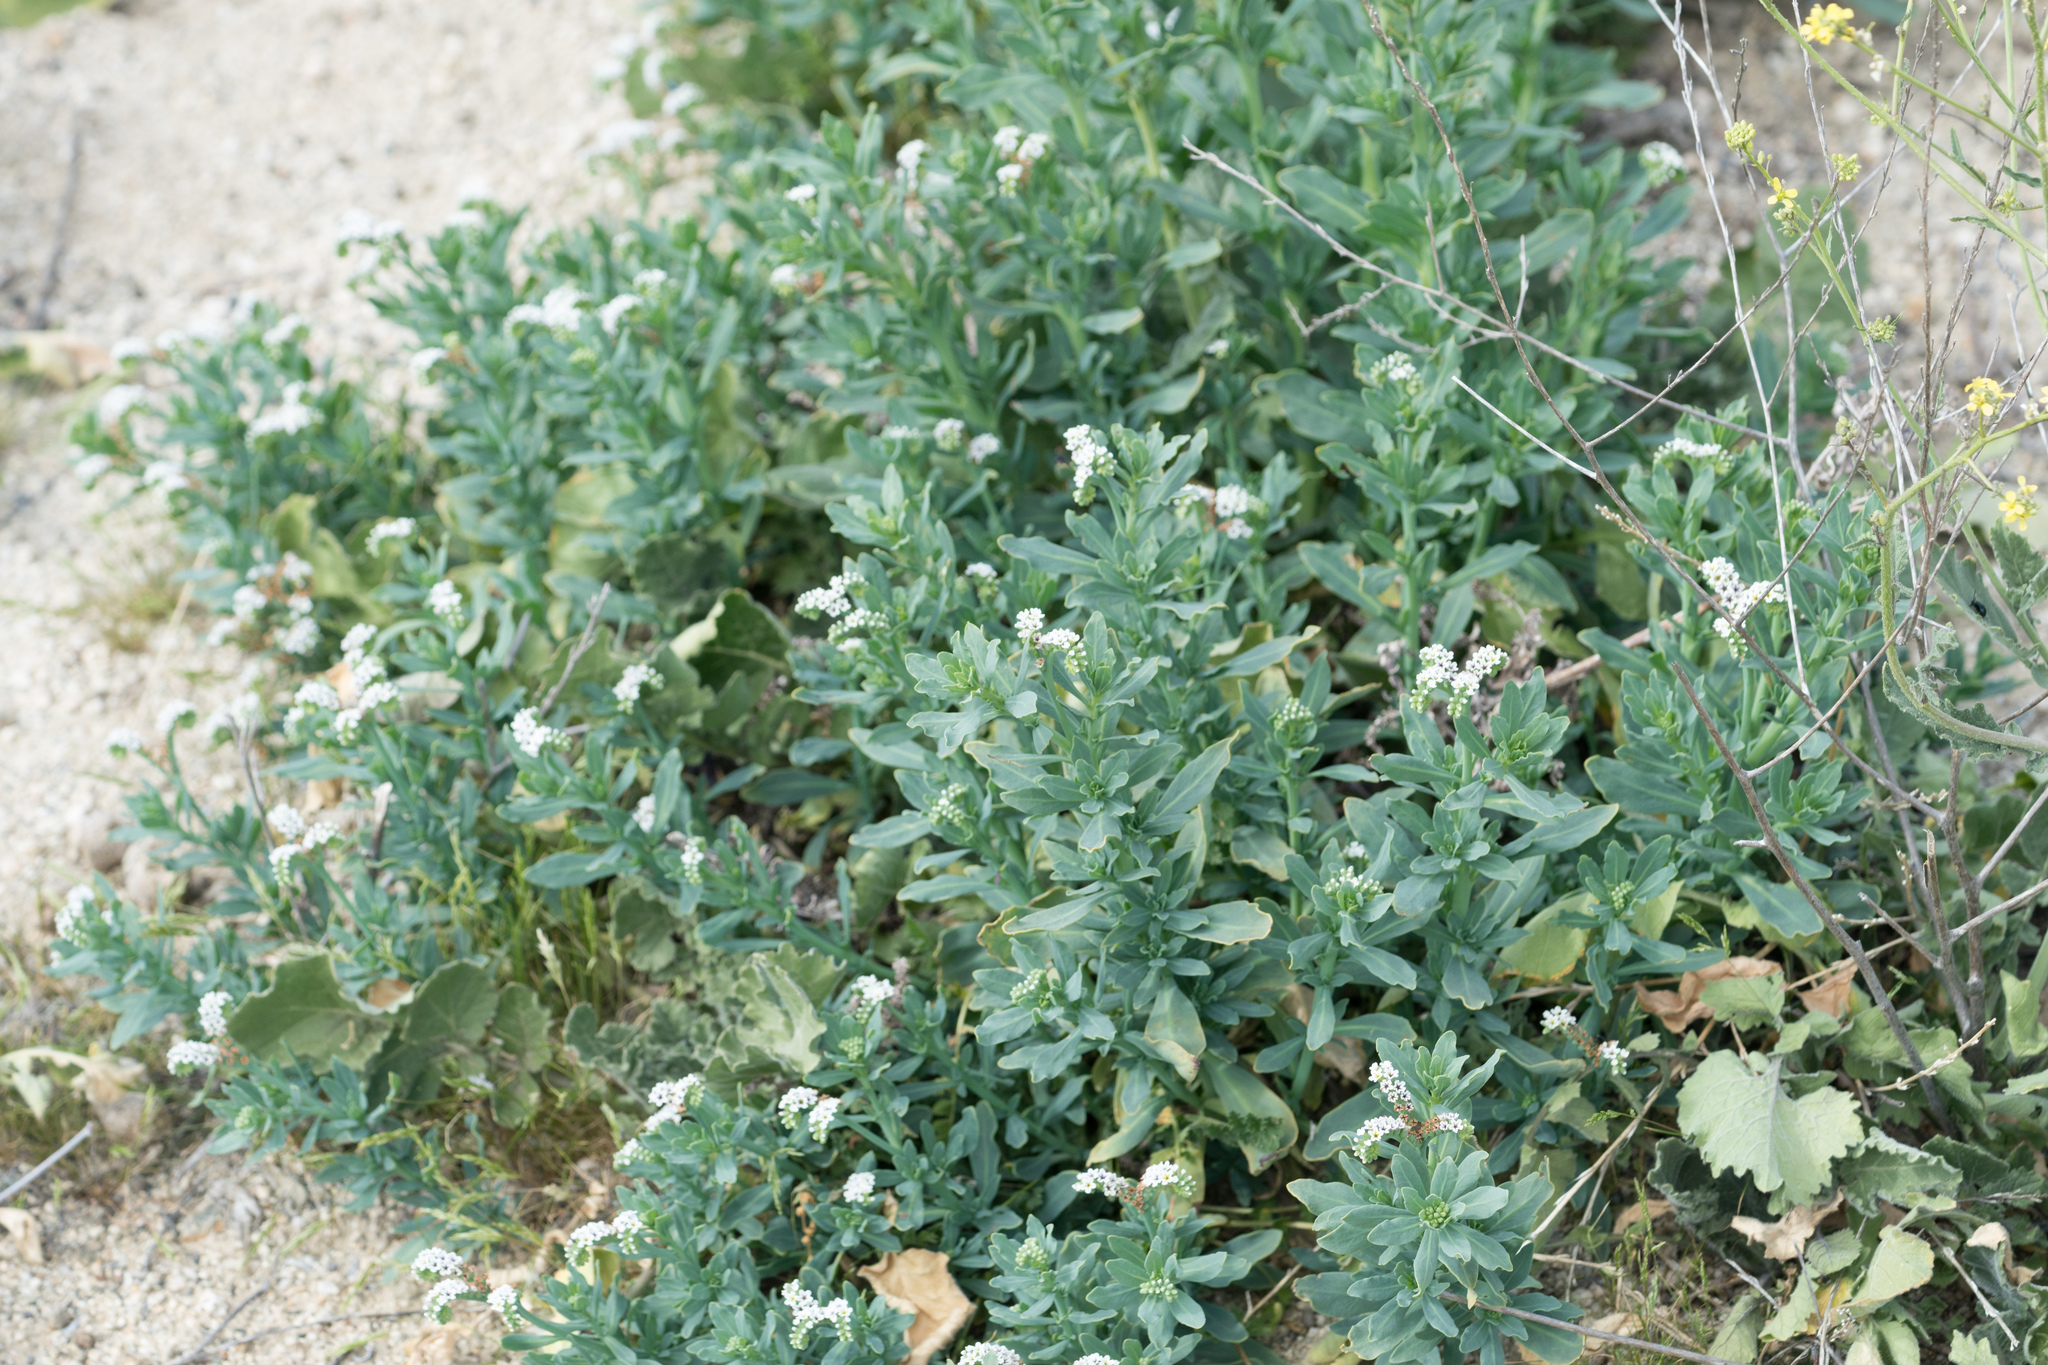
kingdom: Plantae
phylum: Tracheophyta
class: Magnoliopsida
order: Boraginales
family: Heliotropiaceae
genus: Heliotropium
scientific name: Heliotropium curassavicum
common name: Seaside heliotrope
